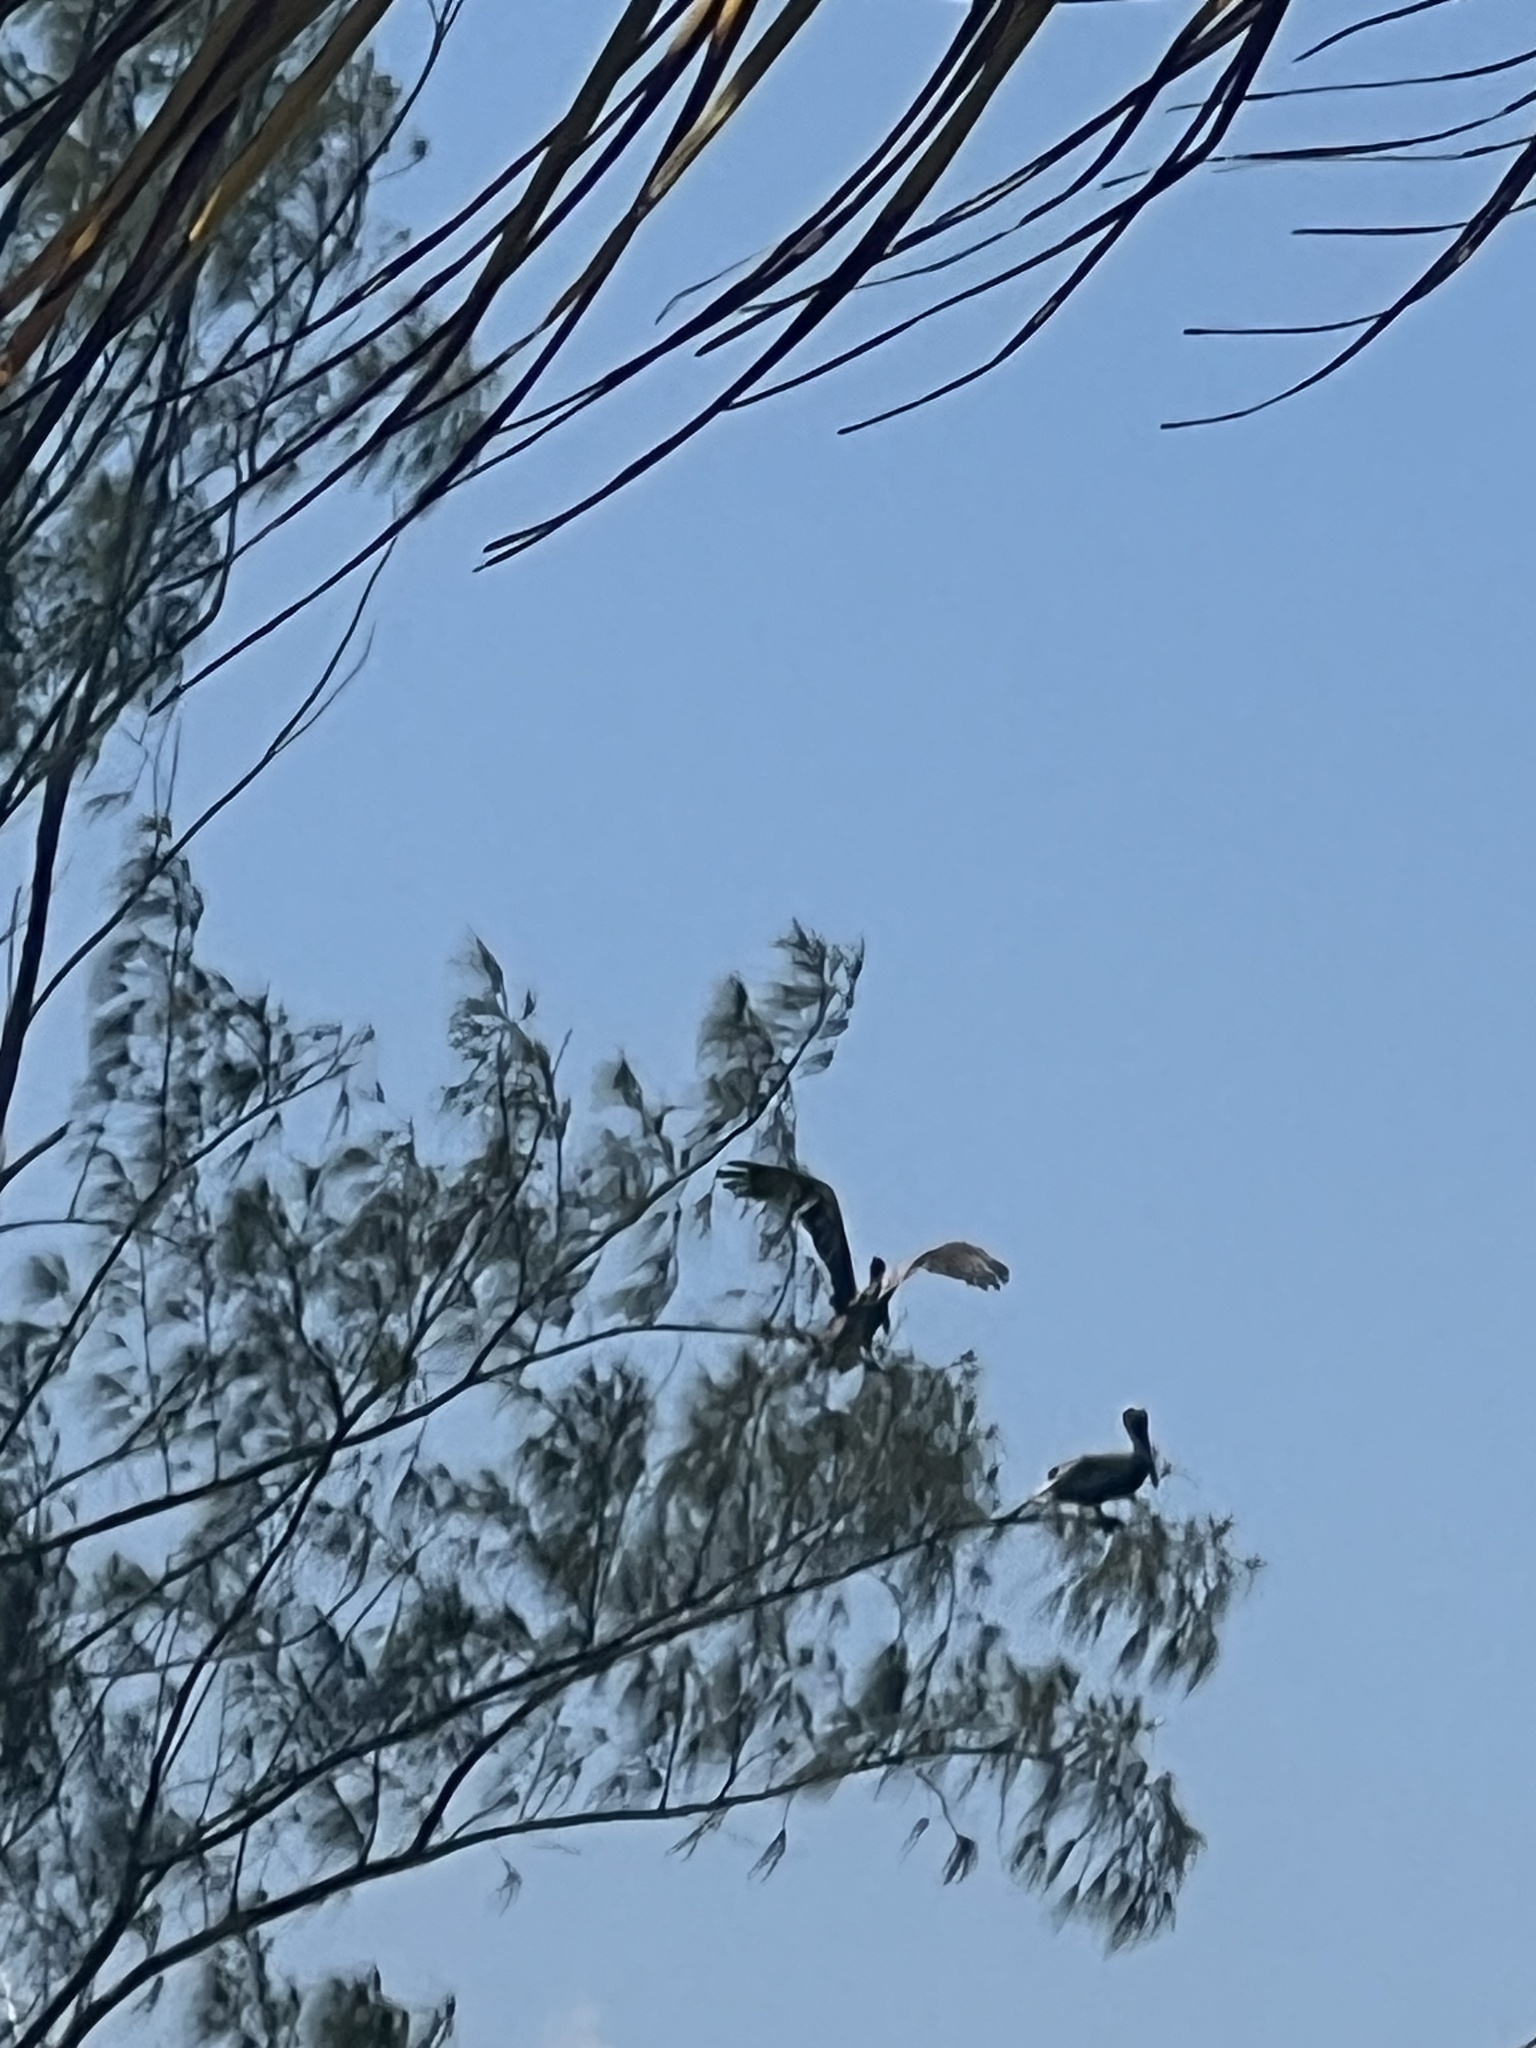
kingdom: Animalia
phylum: Chordata
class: Aves
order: Pelecaniformes
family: Pelecanidae
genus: Pelecanus
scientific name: Pelecanus occidentalis
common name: Brown pelican
